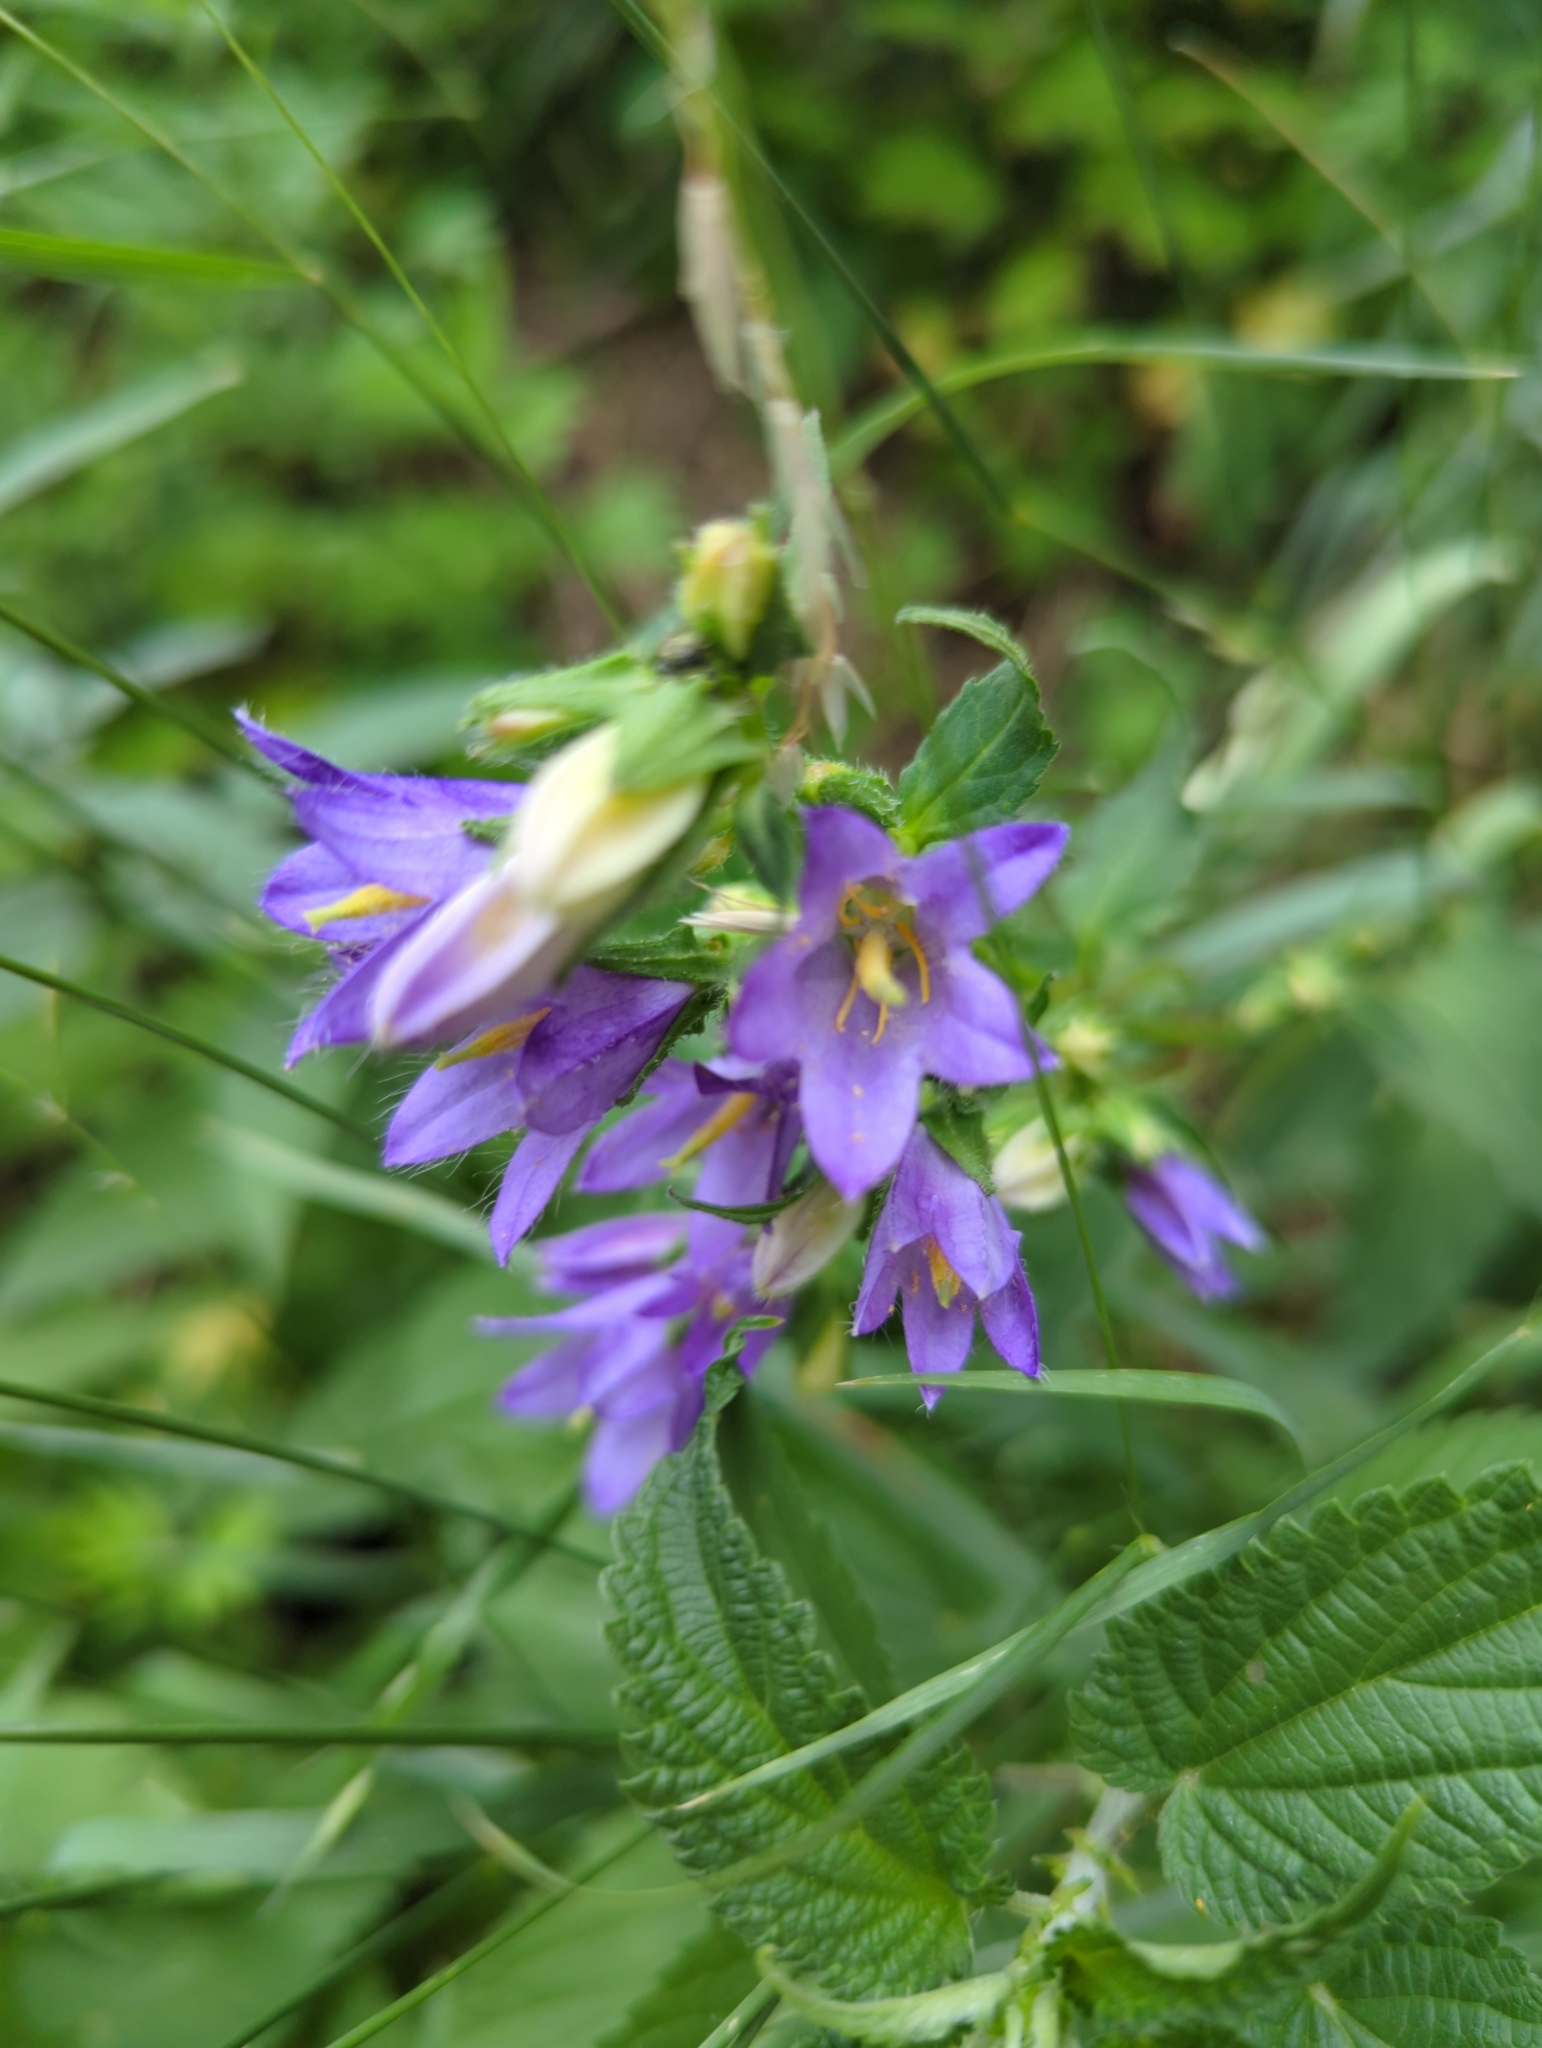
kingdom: Plantae
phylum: Tracheophyta
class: Magnoliopsida
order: Asterales
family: Campanulaceae
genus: Campanula
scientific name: Campanula trachelium
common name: Nettle-leaved bellflower
